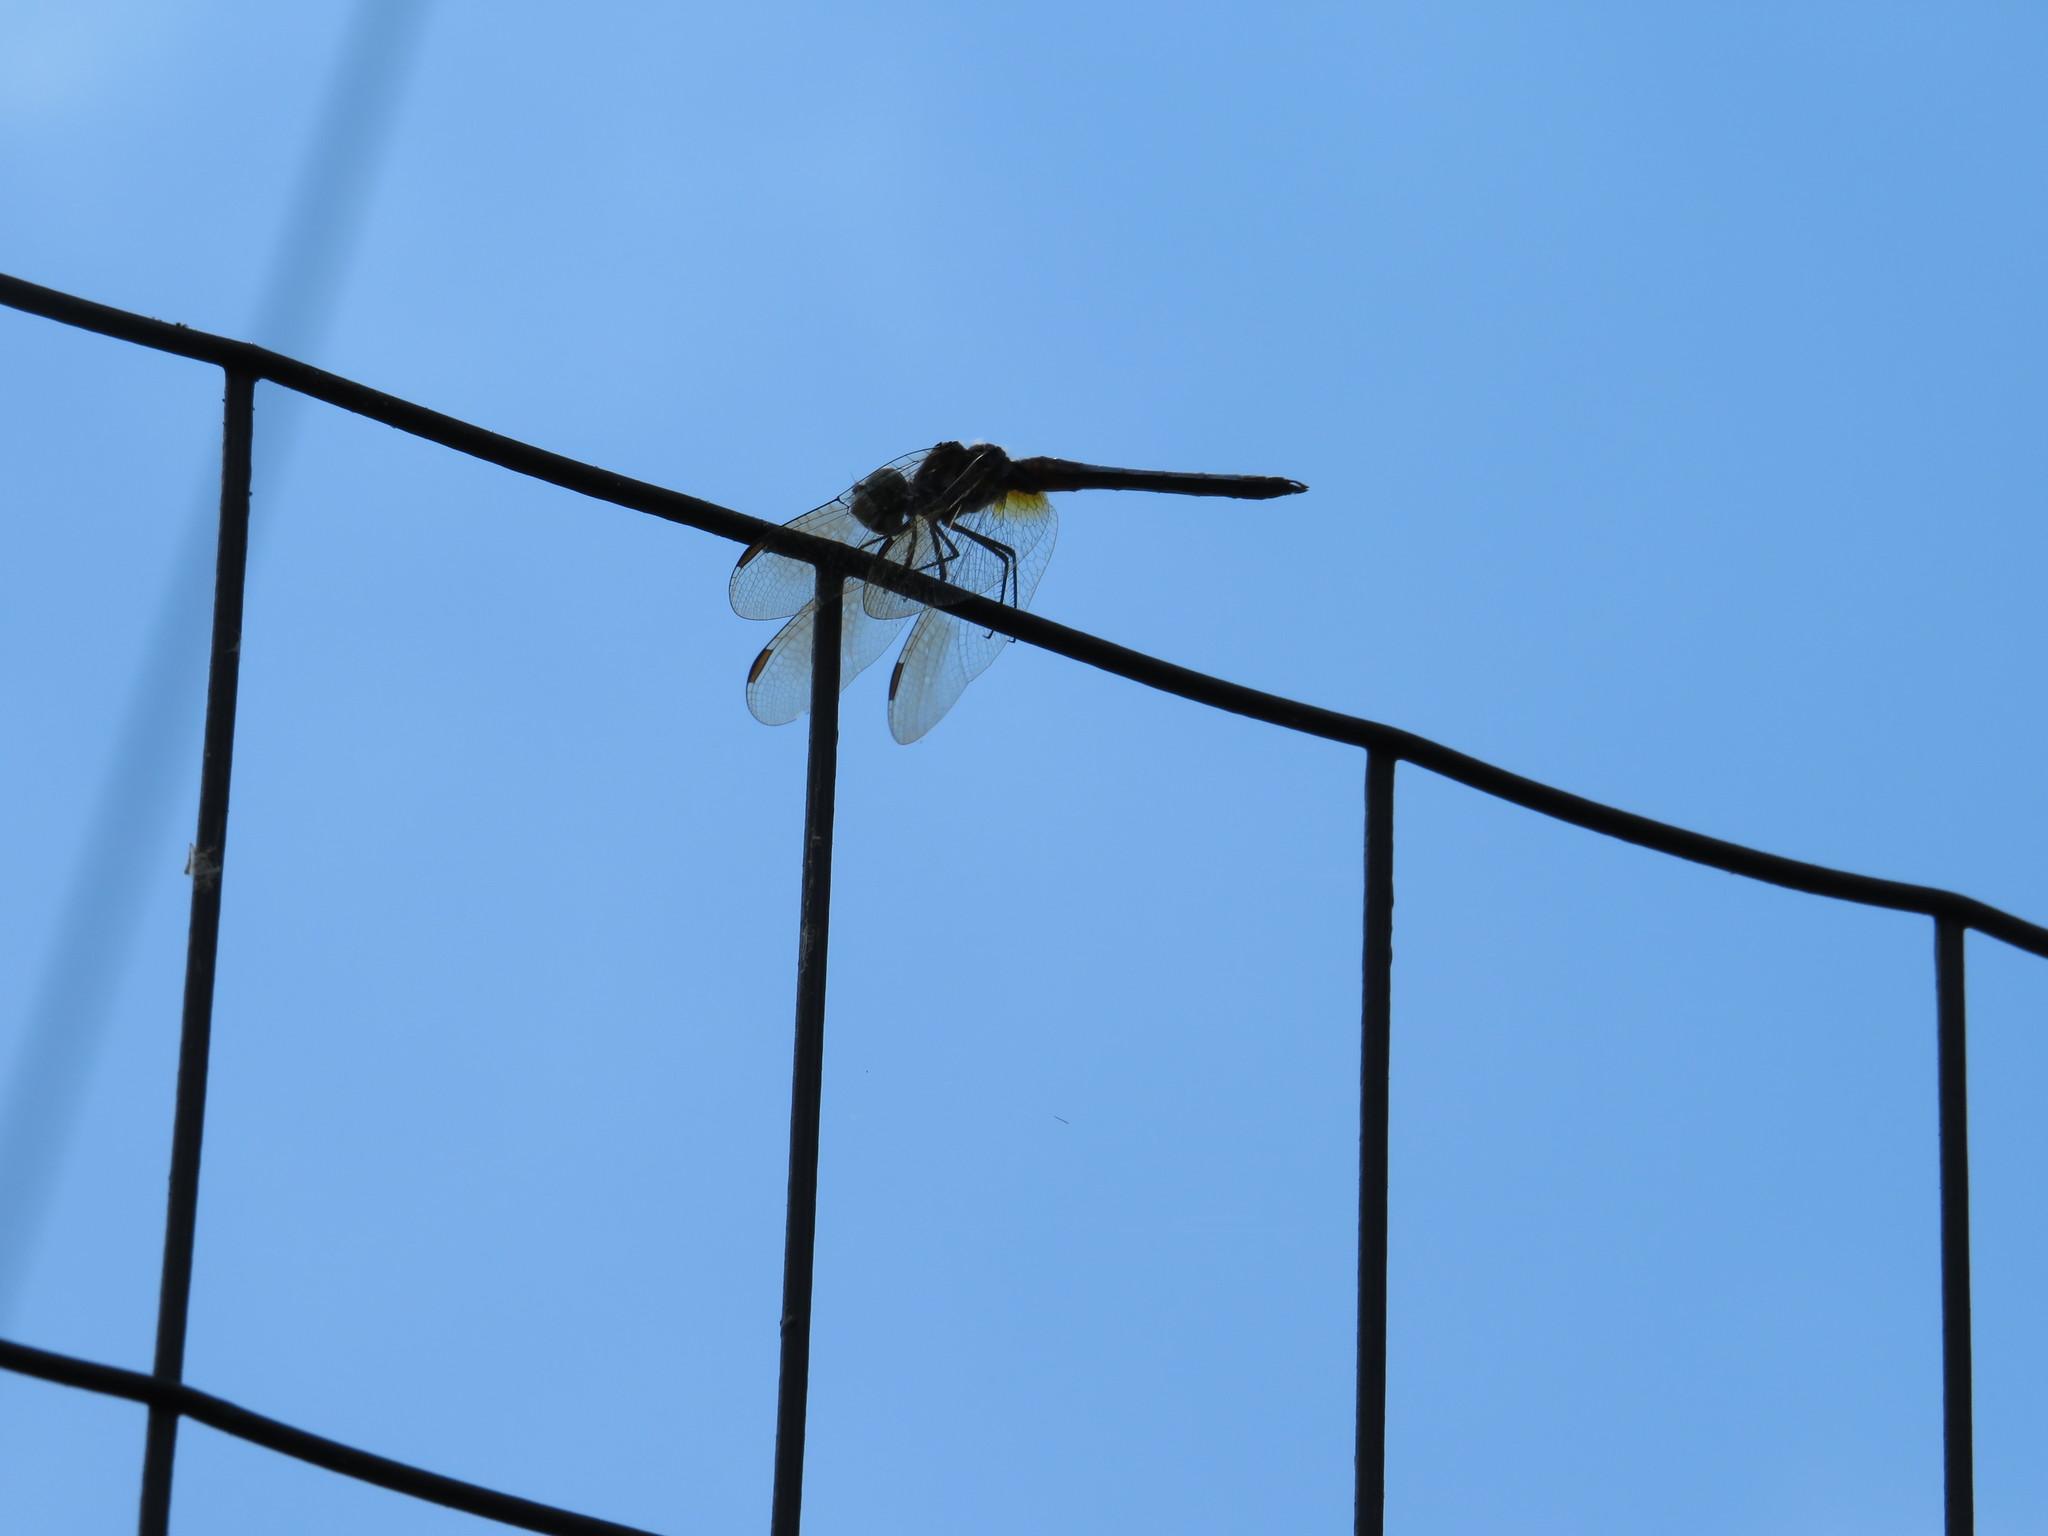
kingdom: Animalia
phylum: Arthropoda
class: Insecta
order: Odonata
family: Libellulidae
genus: Pachydiplax
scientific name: Pachydiplax longipennis
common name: Blue dasher
